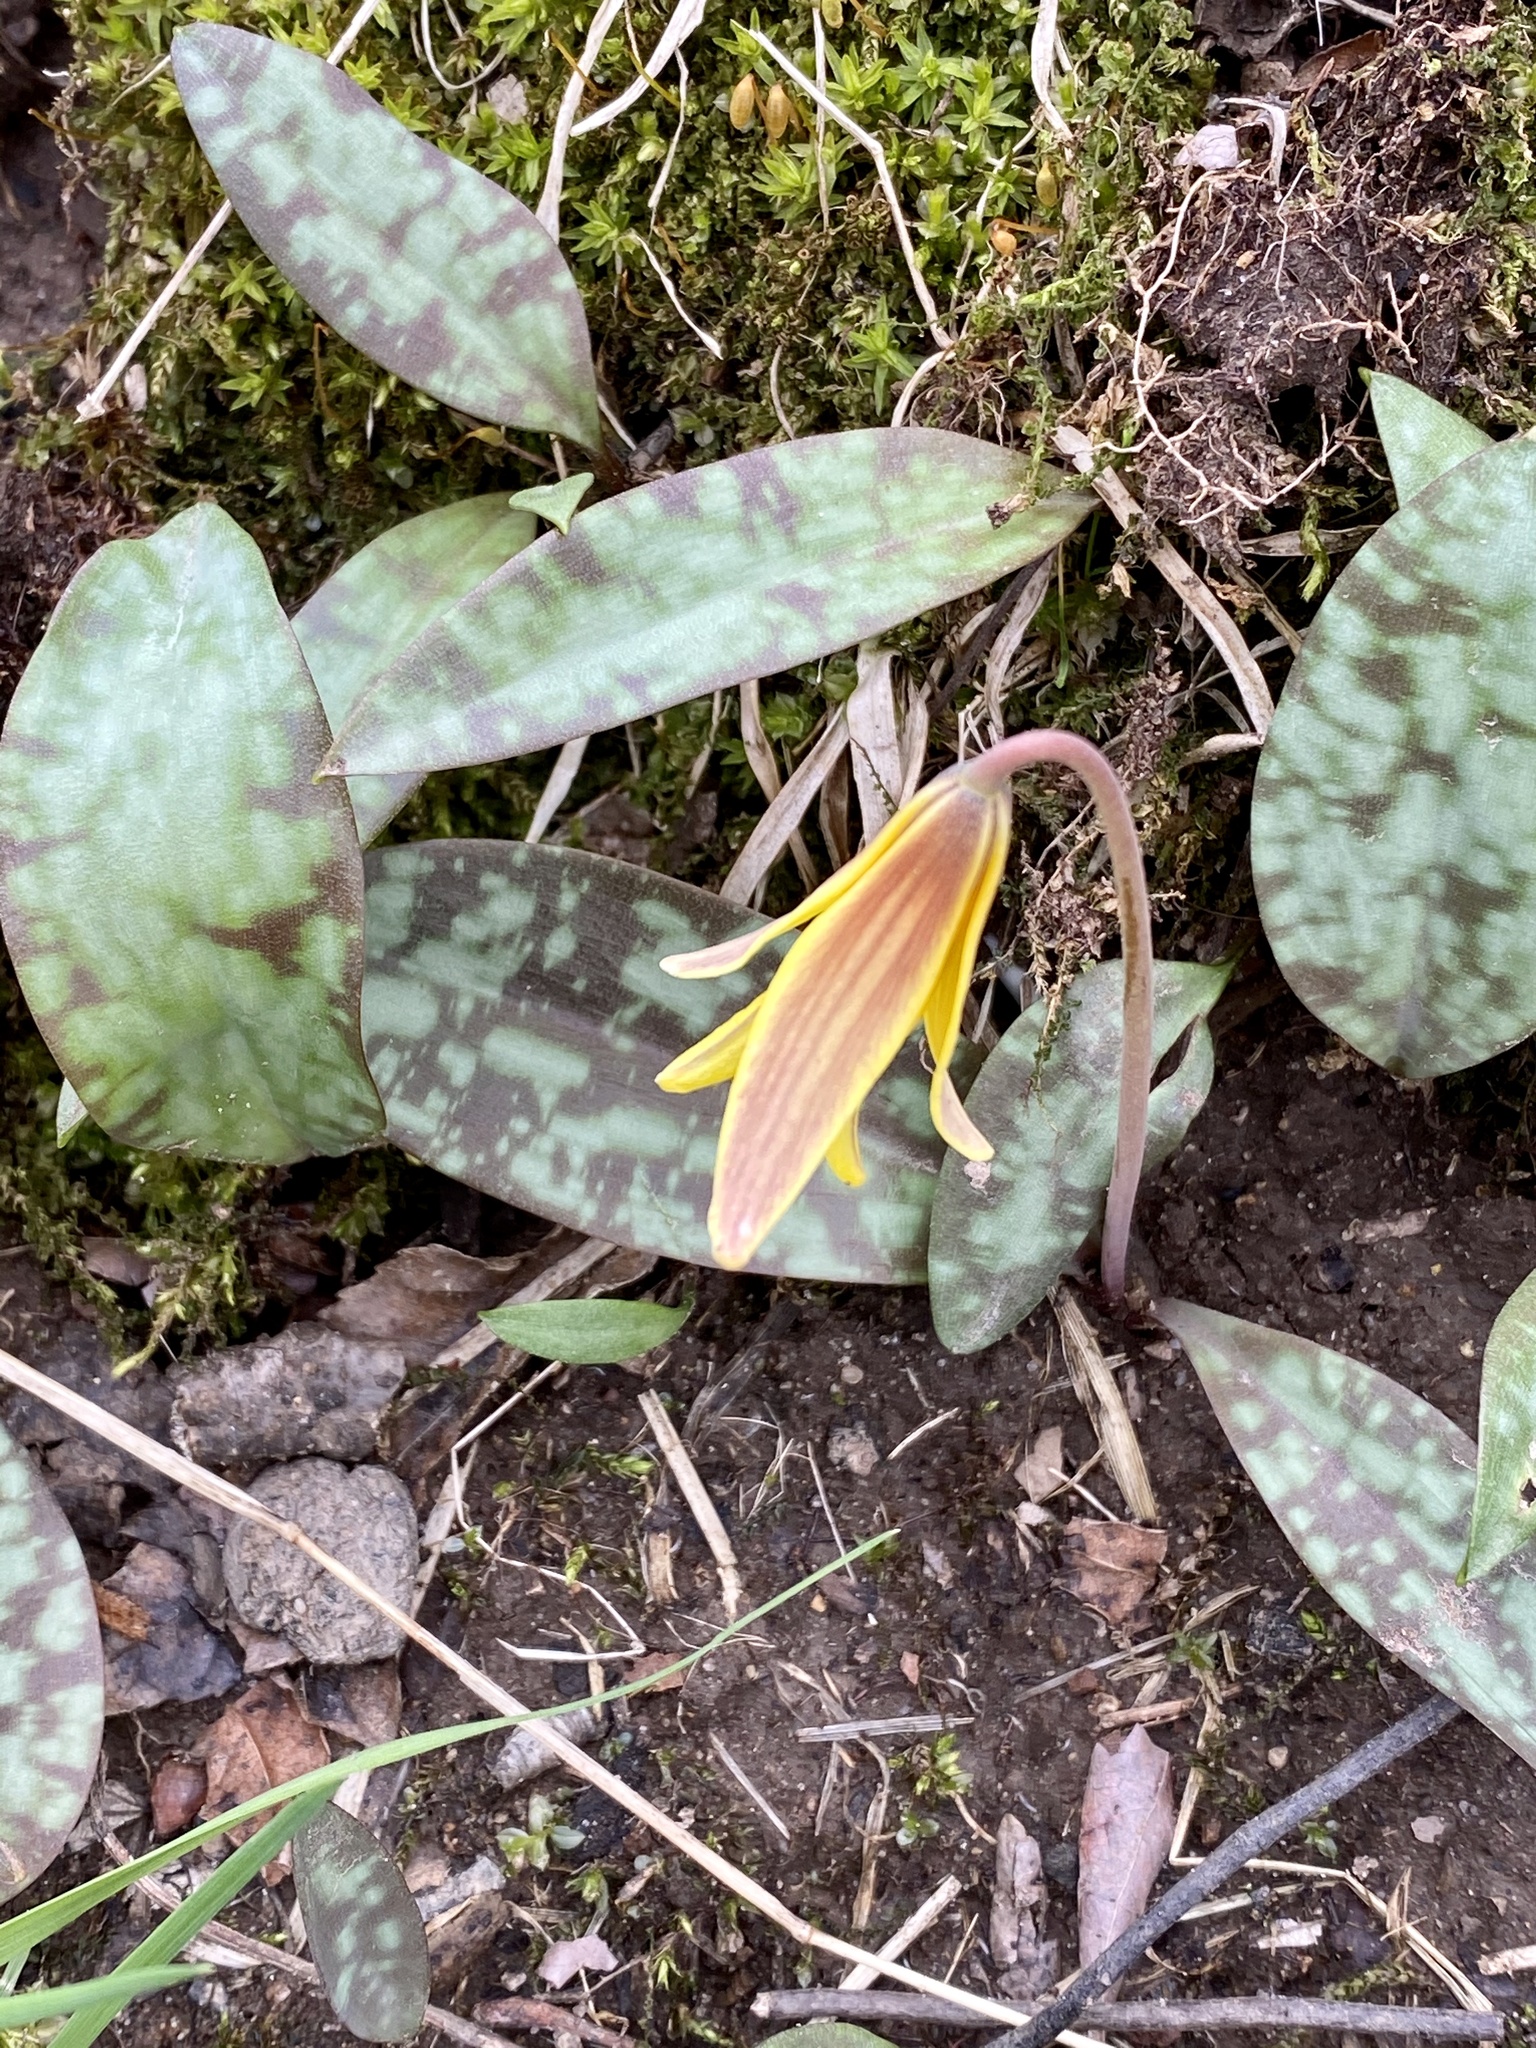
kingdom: Plantae
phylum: Tracheophyta
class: Liliopsida
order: Liliales
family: Liliaceae
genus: Erythronium
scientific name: Erythronium americanum
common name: Yellow adder's-tongue
